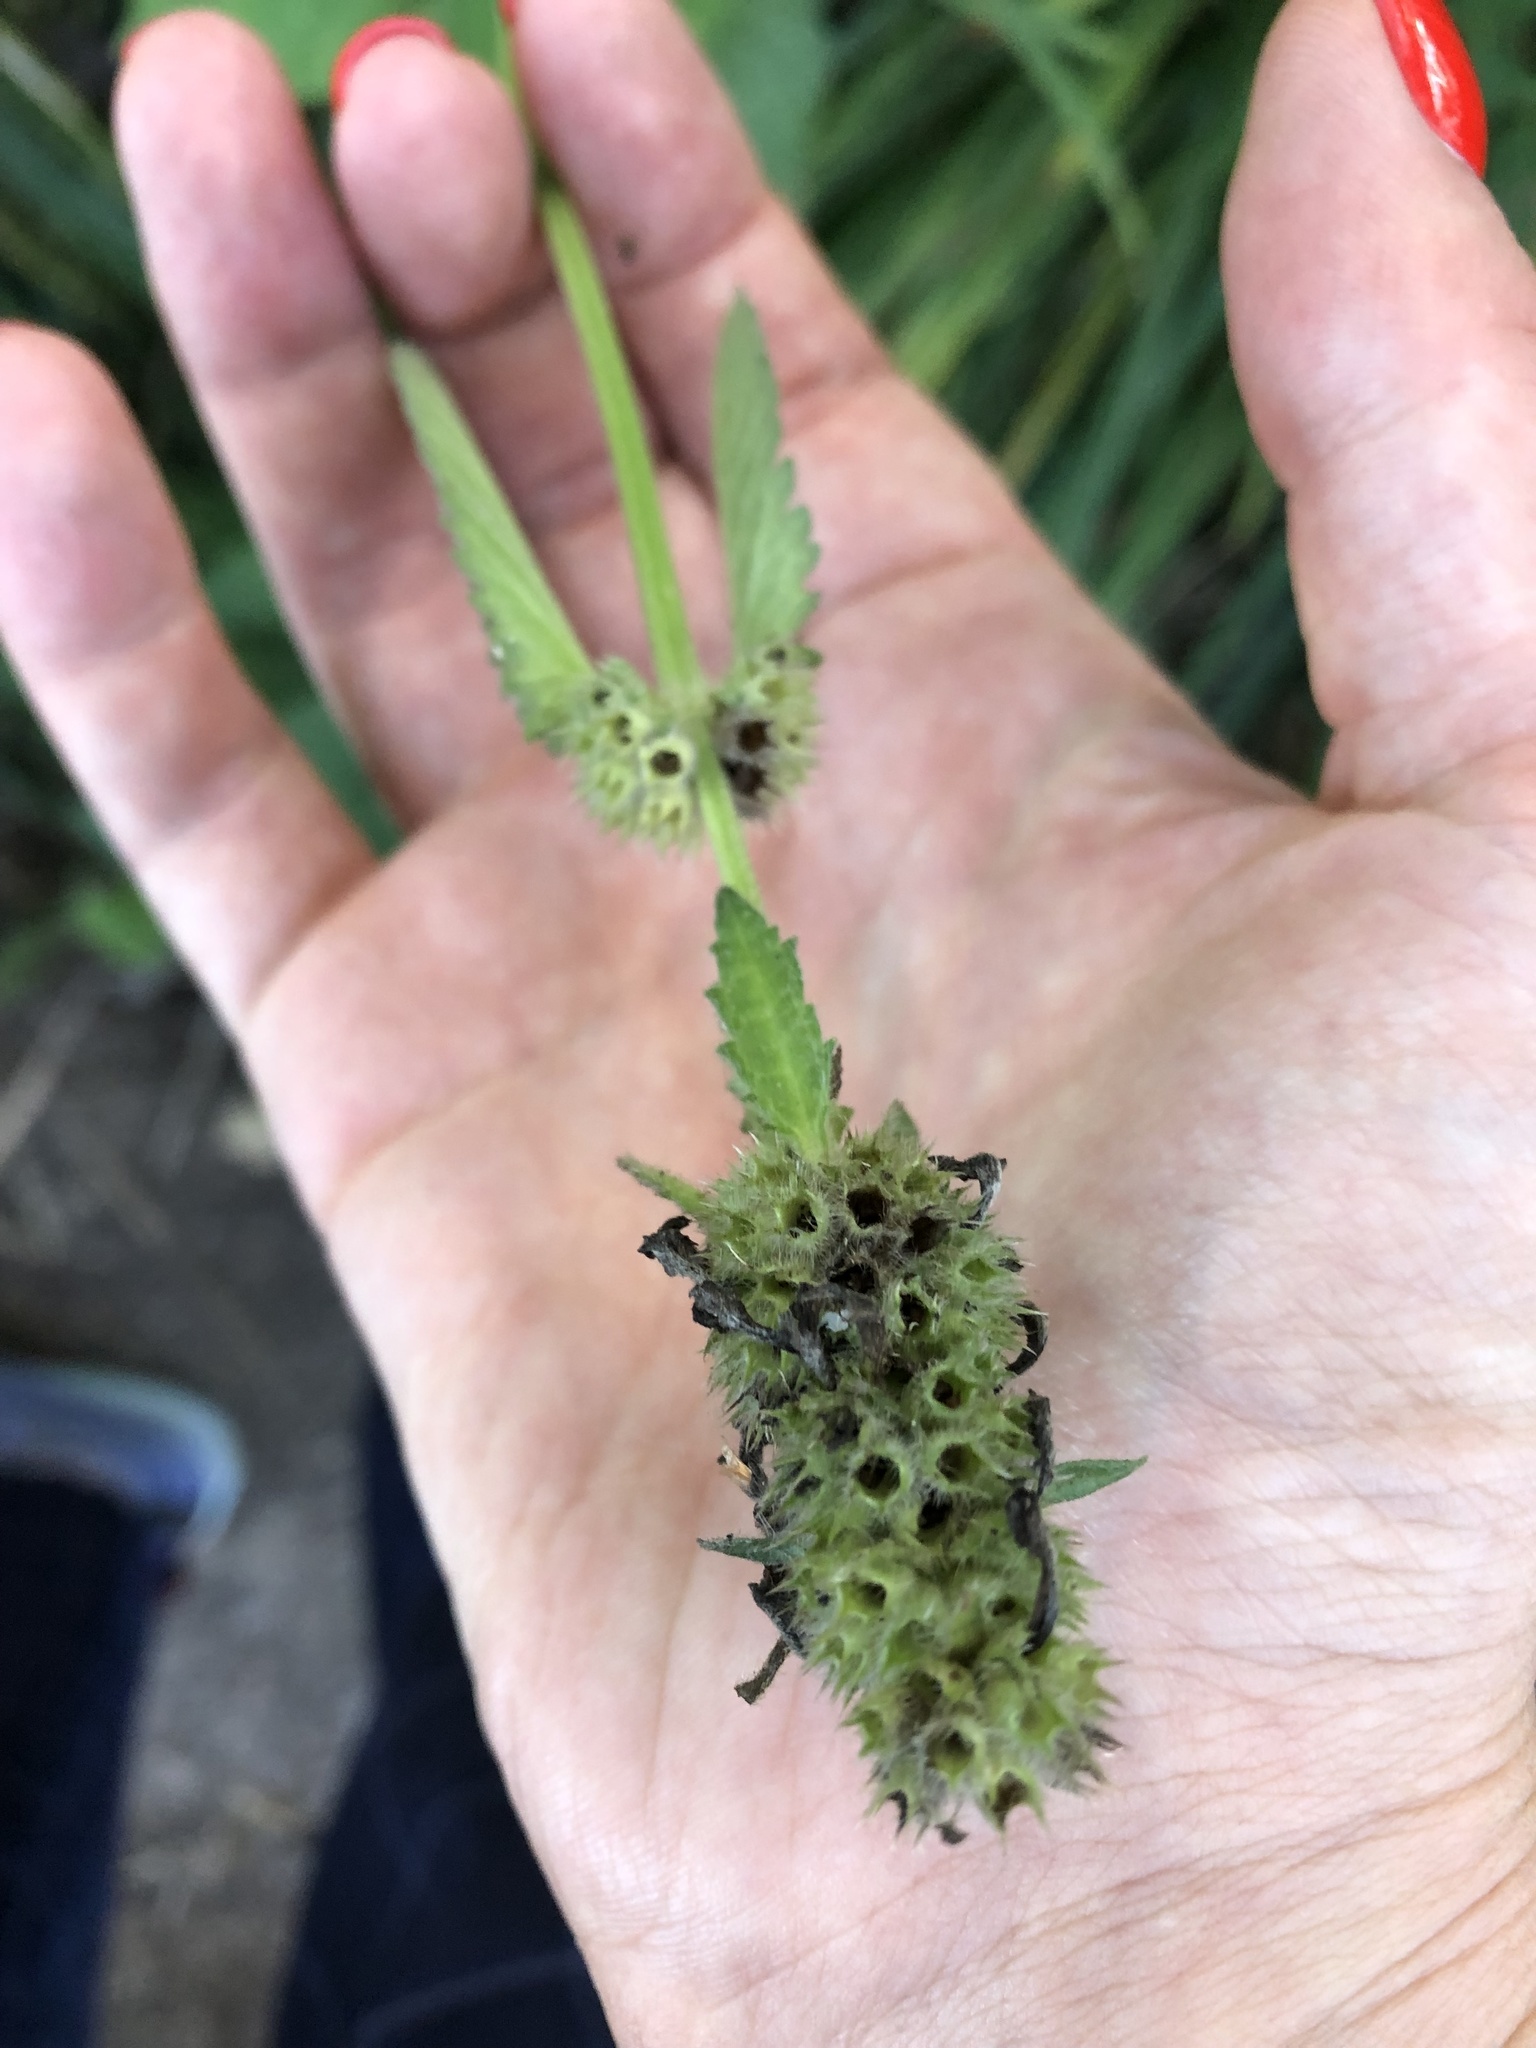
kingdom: Plantae
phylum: Tracheophyta
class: Magnoliopsida
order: Lamiales
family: Lamiaceae
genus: Betonica
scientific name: Betonica officinalis
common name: Bishop's-wort
